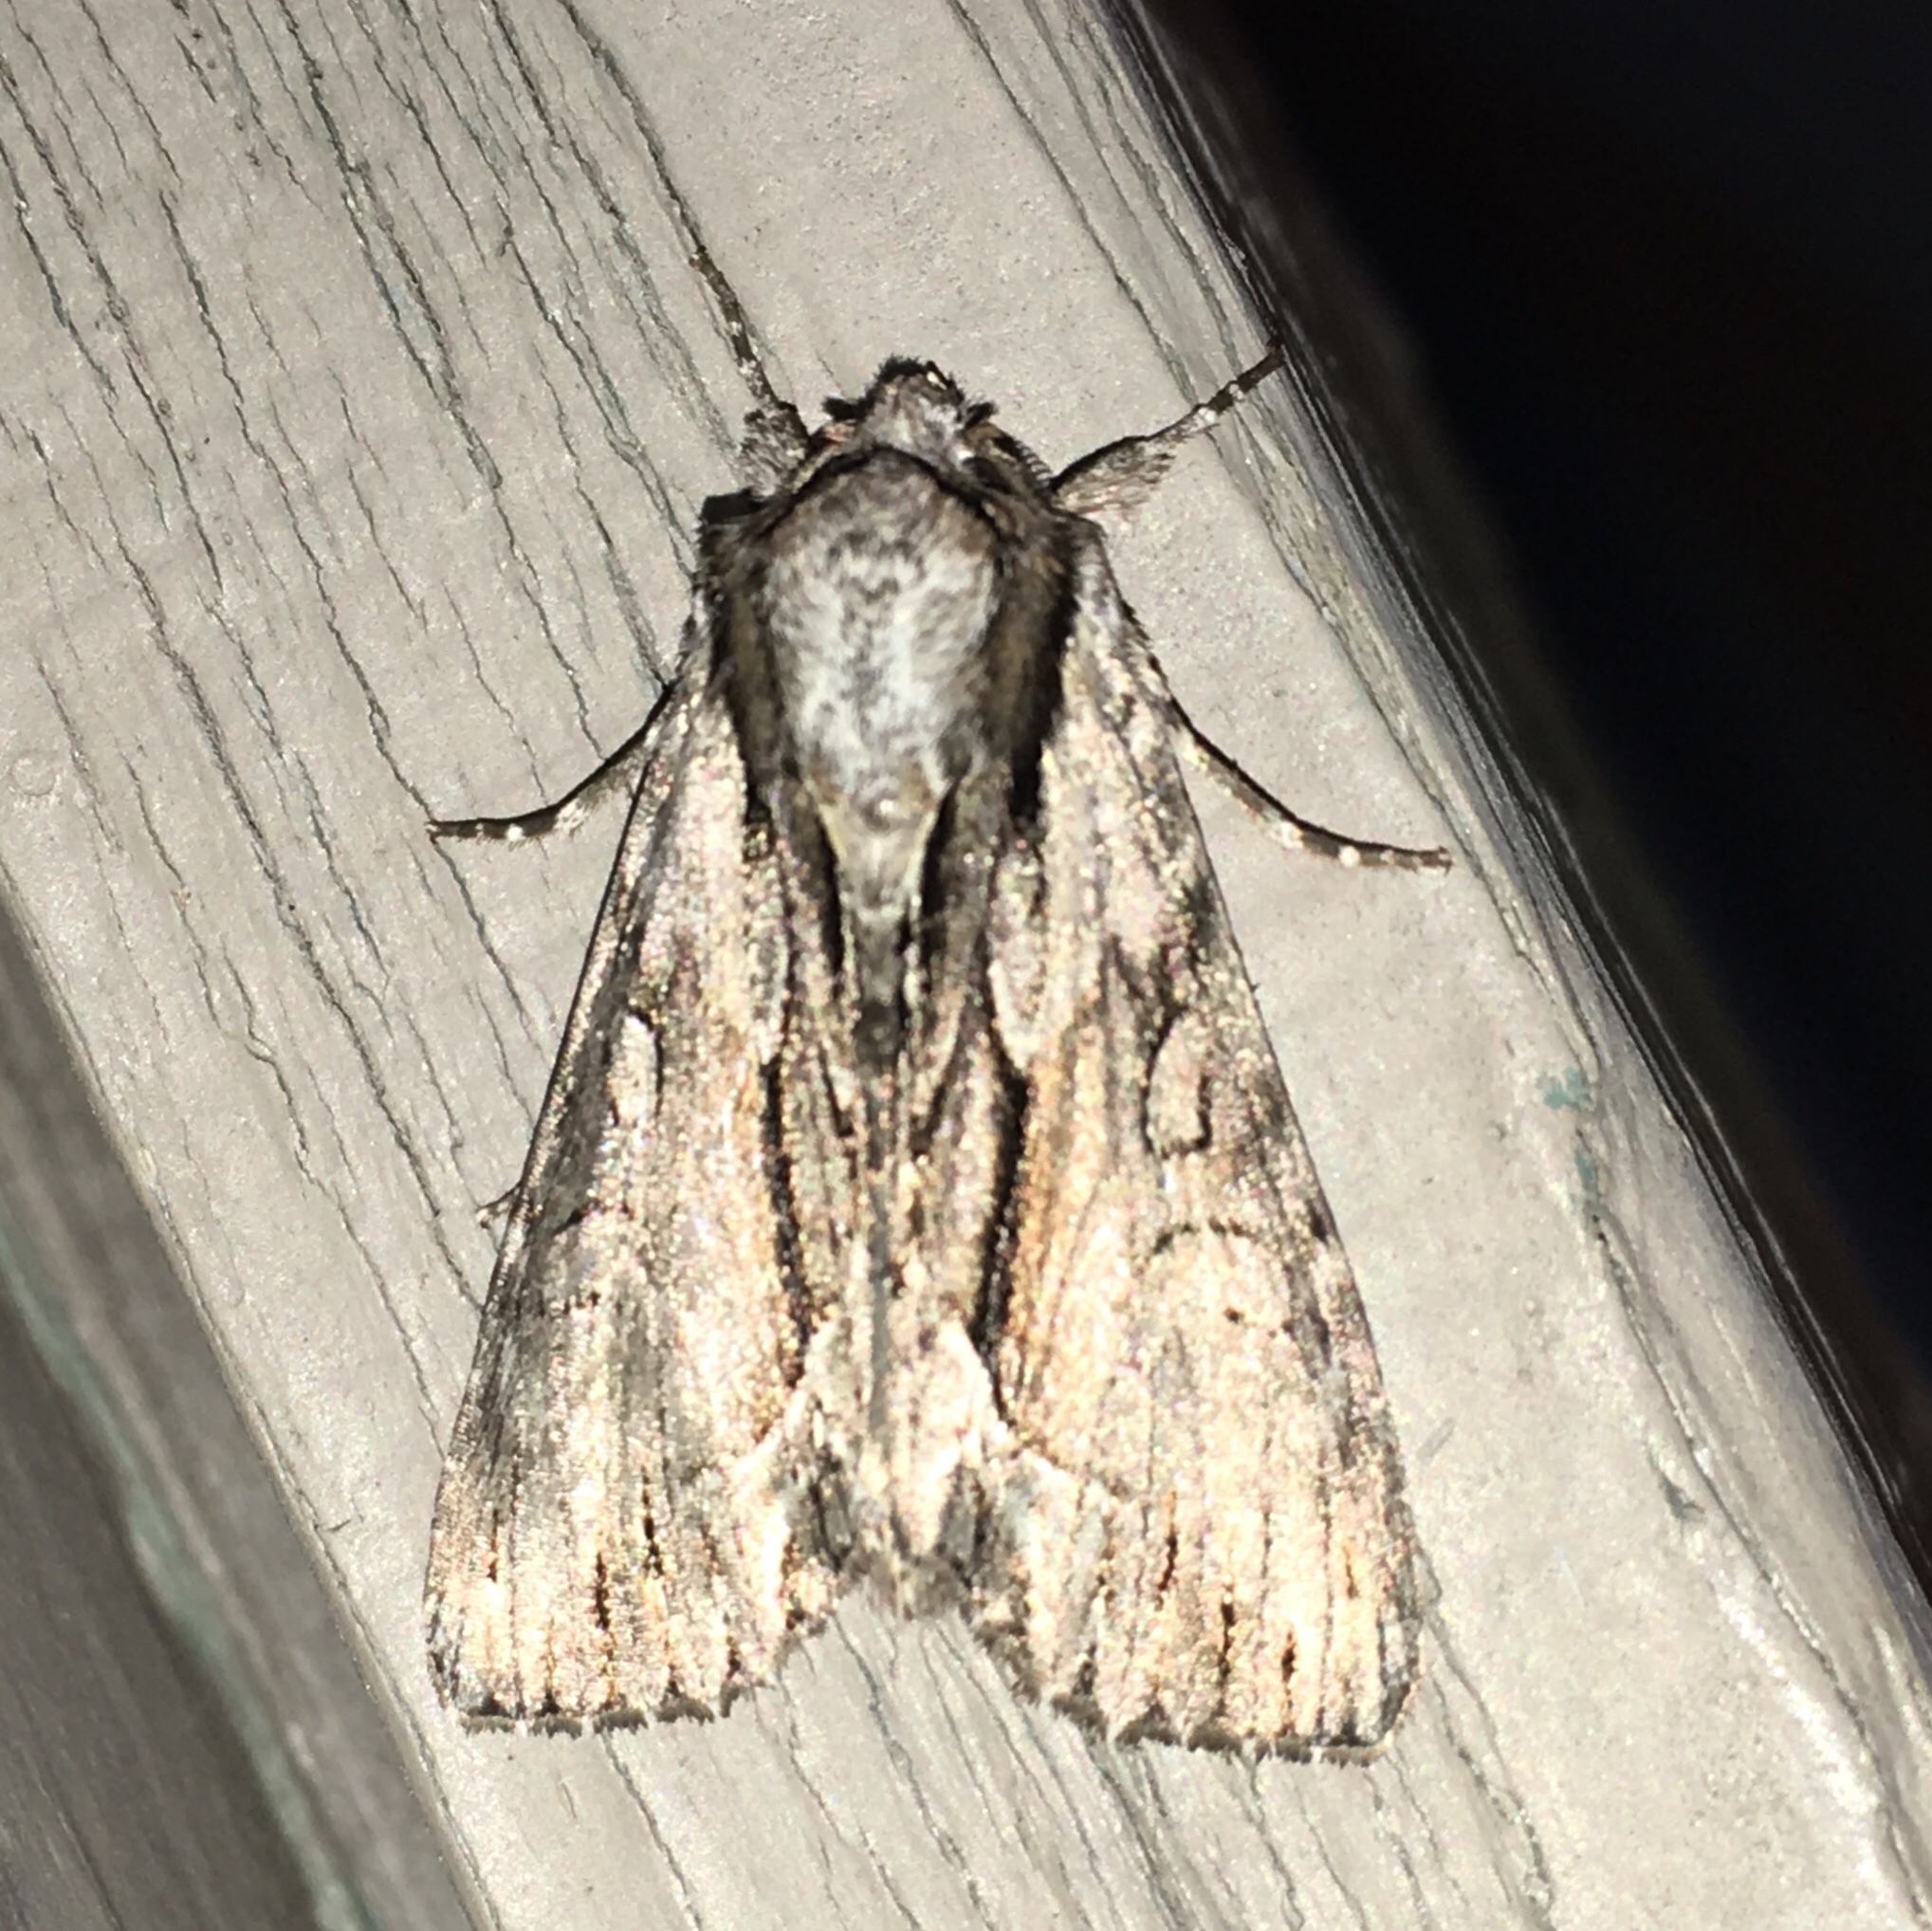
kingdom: Animalia
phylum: Arthropoda
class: Insecta
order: Lepidoptera
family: Noctuidae
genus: Hyppa
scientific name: Hyppa xylinoides
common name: Common hyppa moth
